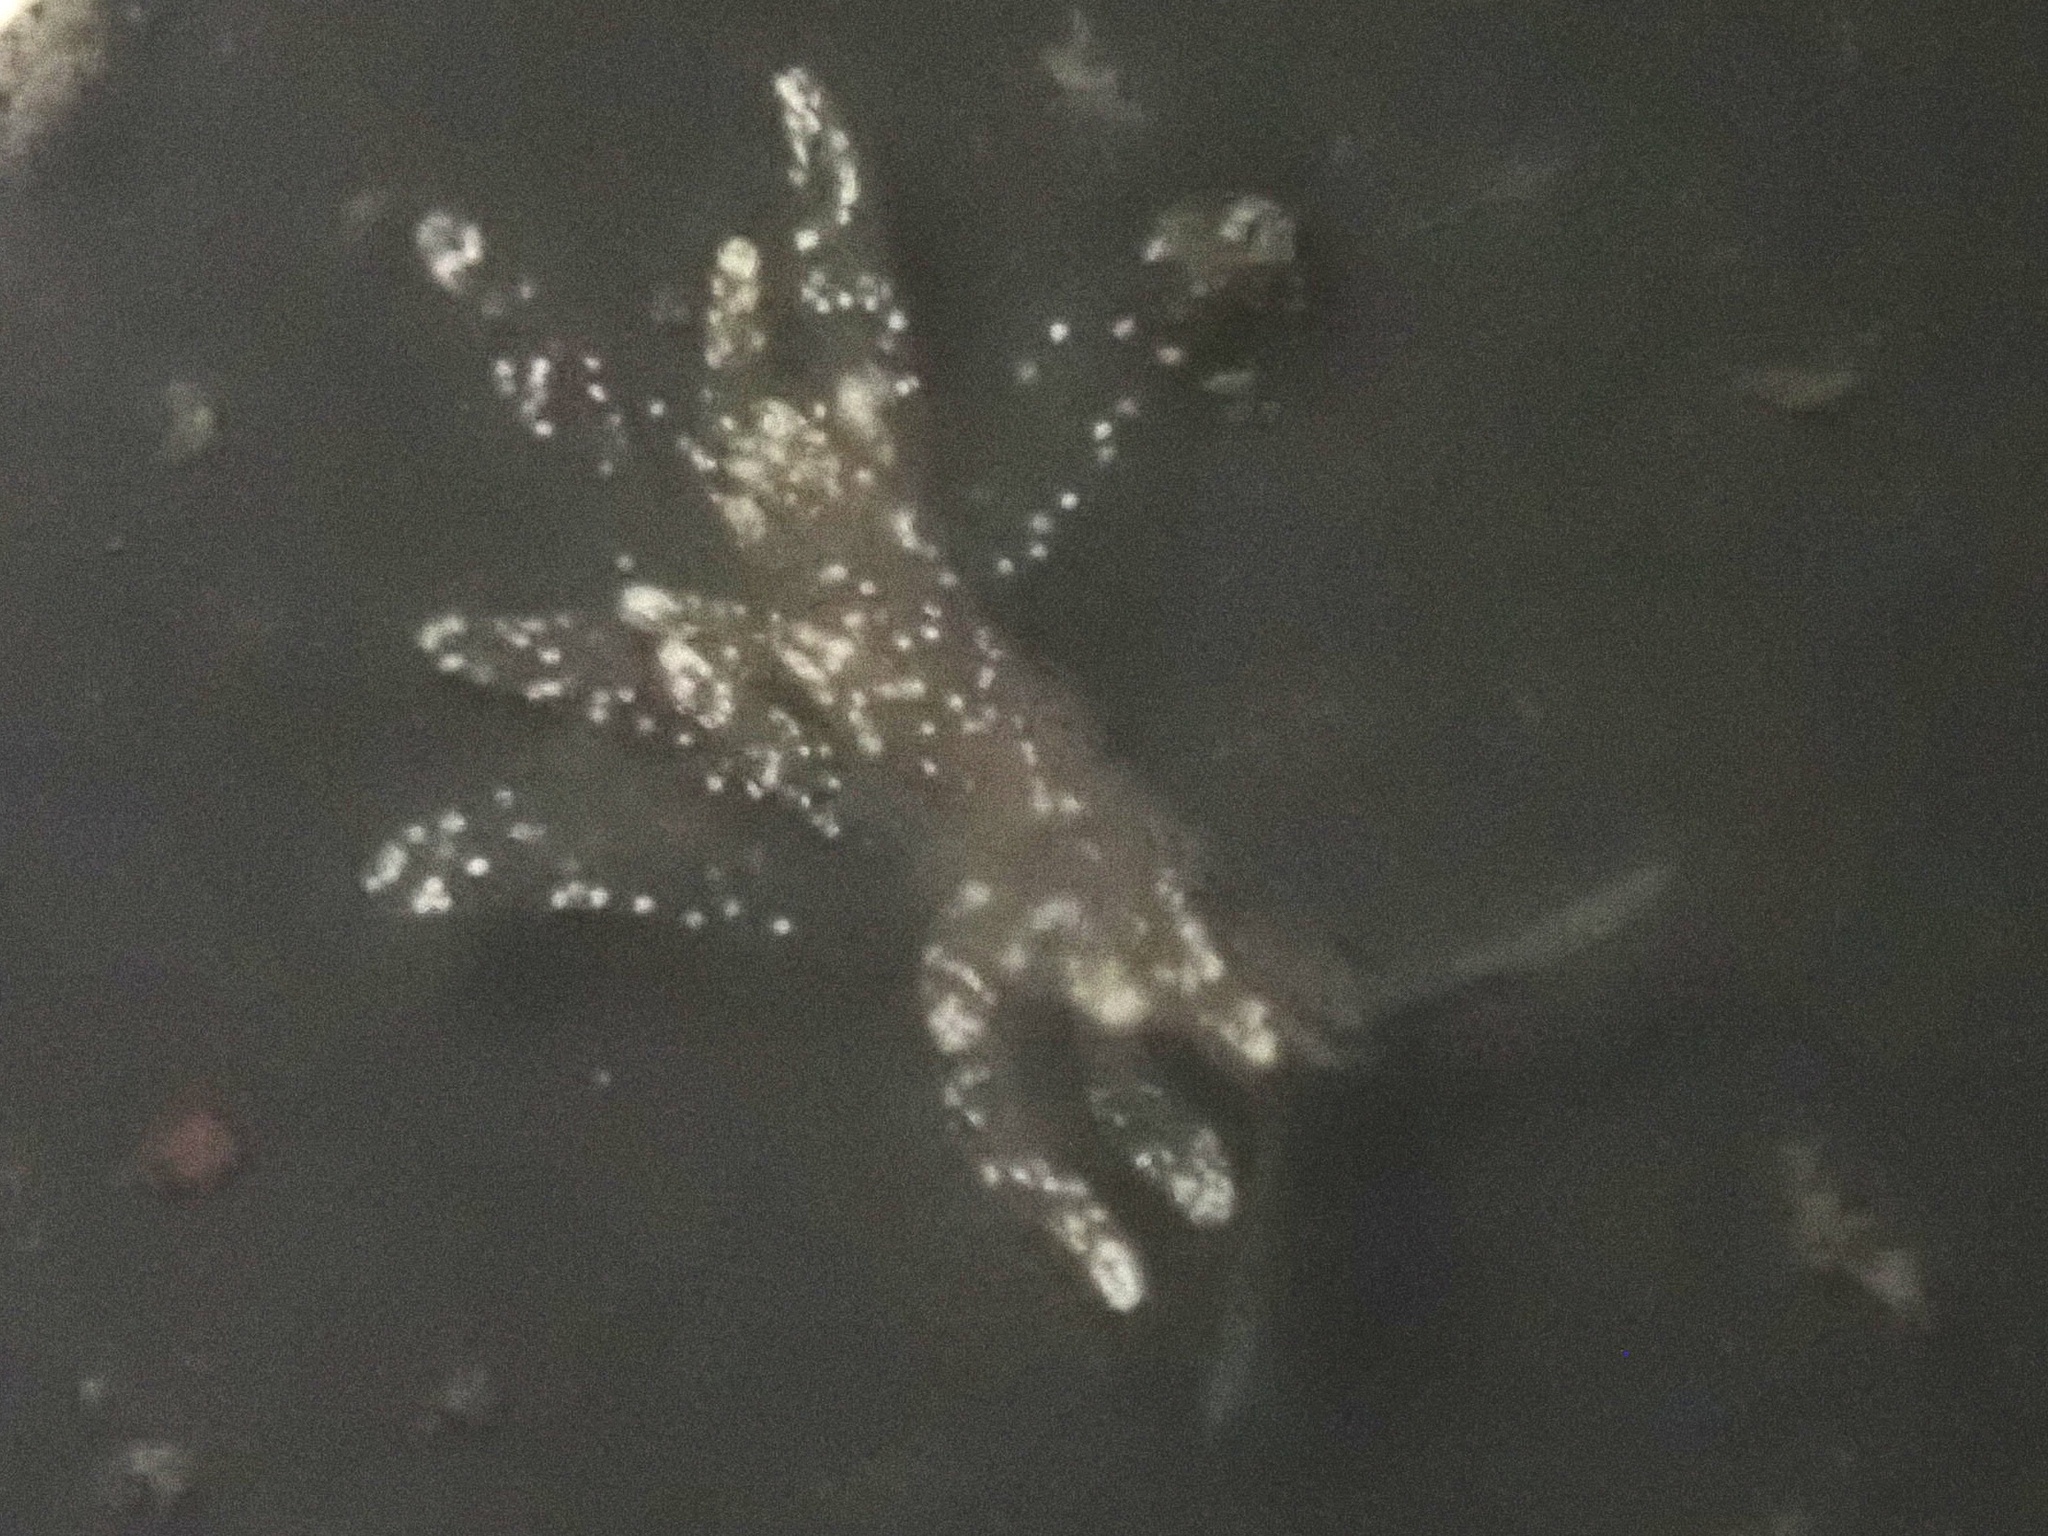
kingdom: Animalia
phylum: Mollusca
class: Gastropoda
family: Limapontiidae
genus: Stiliger
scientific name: Stiliger fuscovittatus
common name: Brown-streak stiliger
